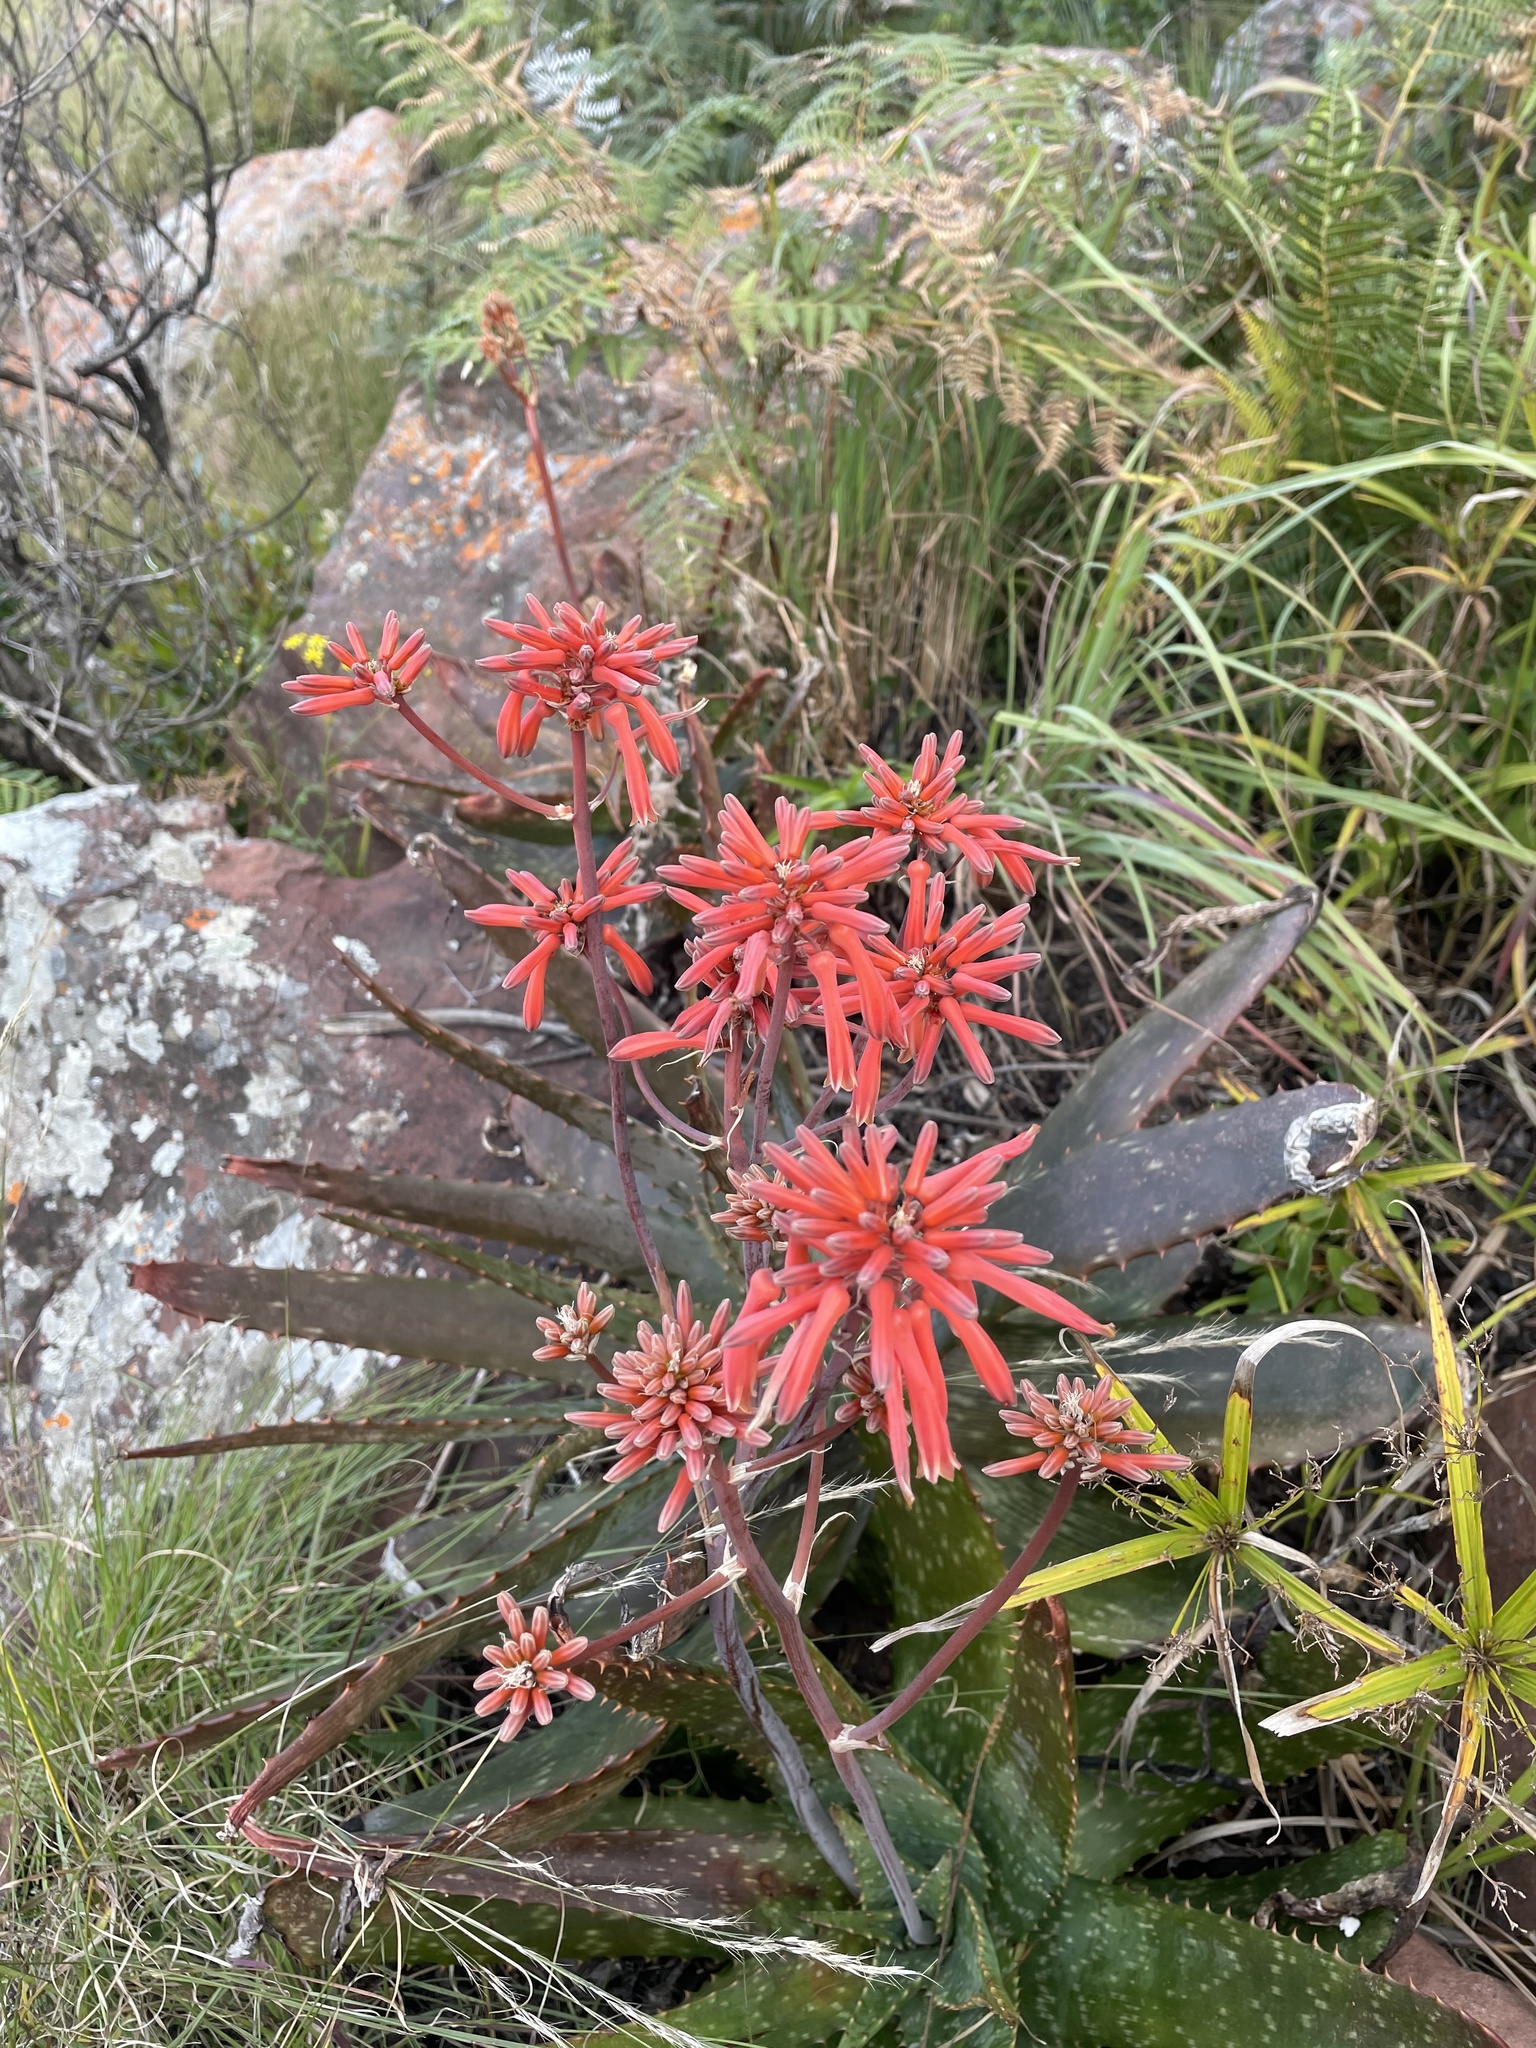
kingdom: Plantae
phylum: Tracheophyta
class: Liliopsida
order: Asparagales
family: Asphodelaceae
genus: Aloe
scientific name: Aloe hahnii
